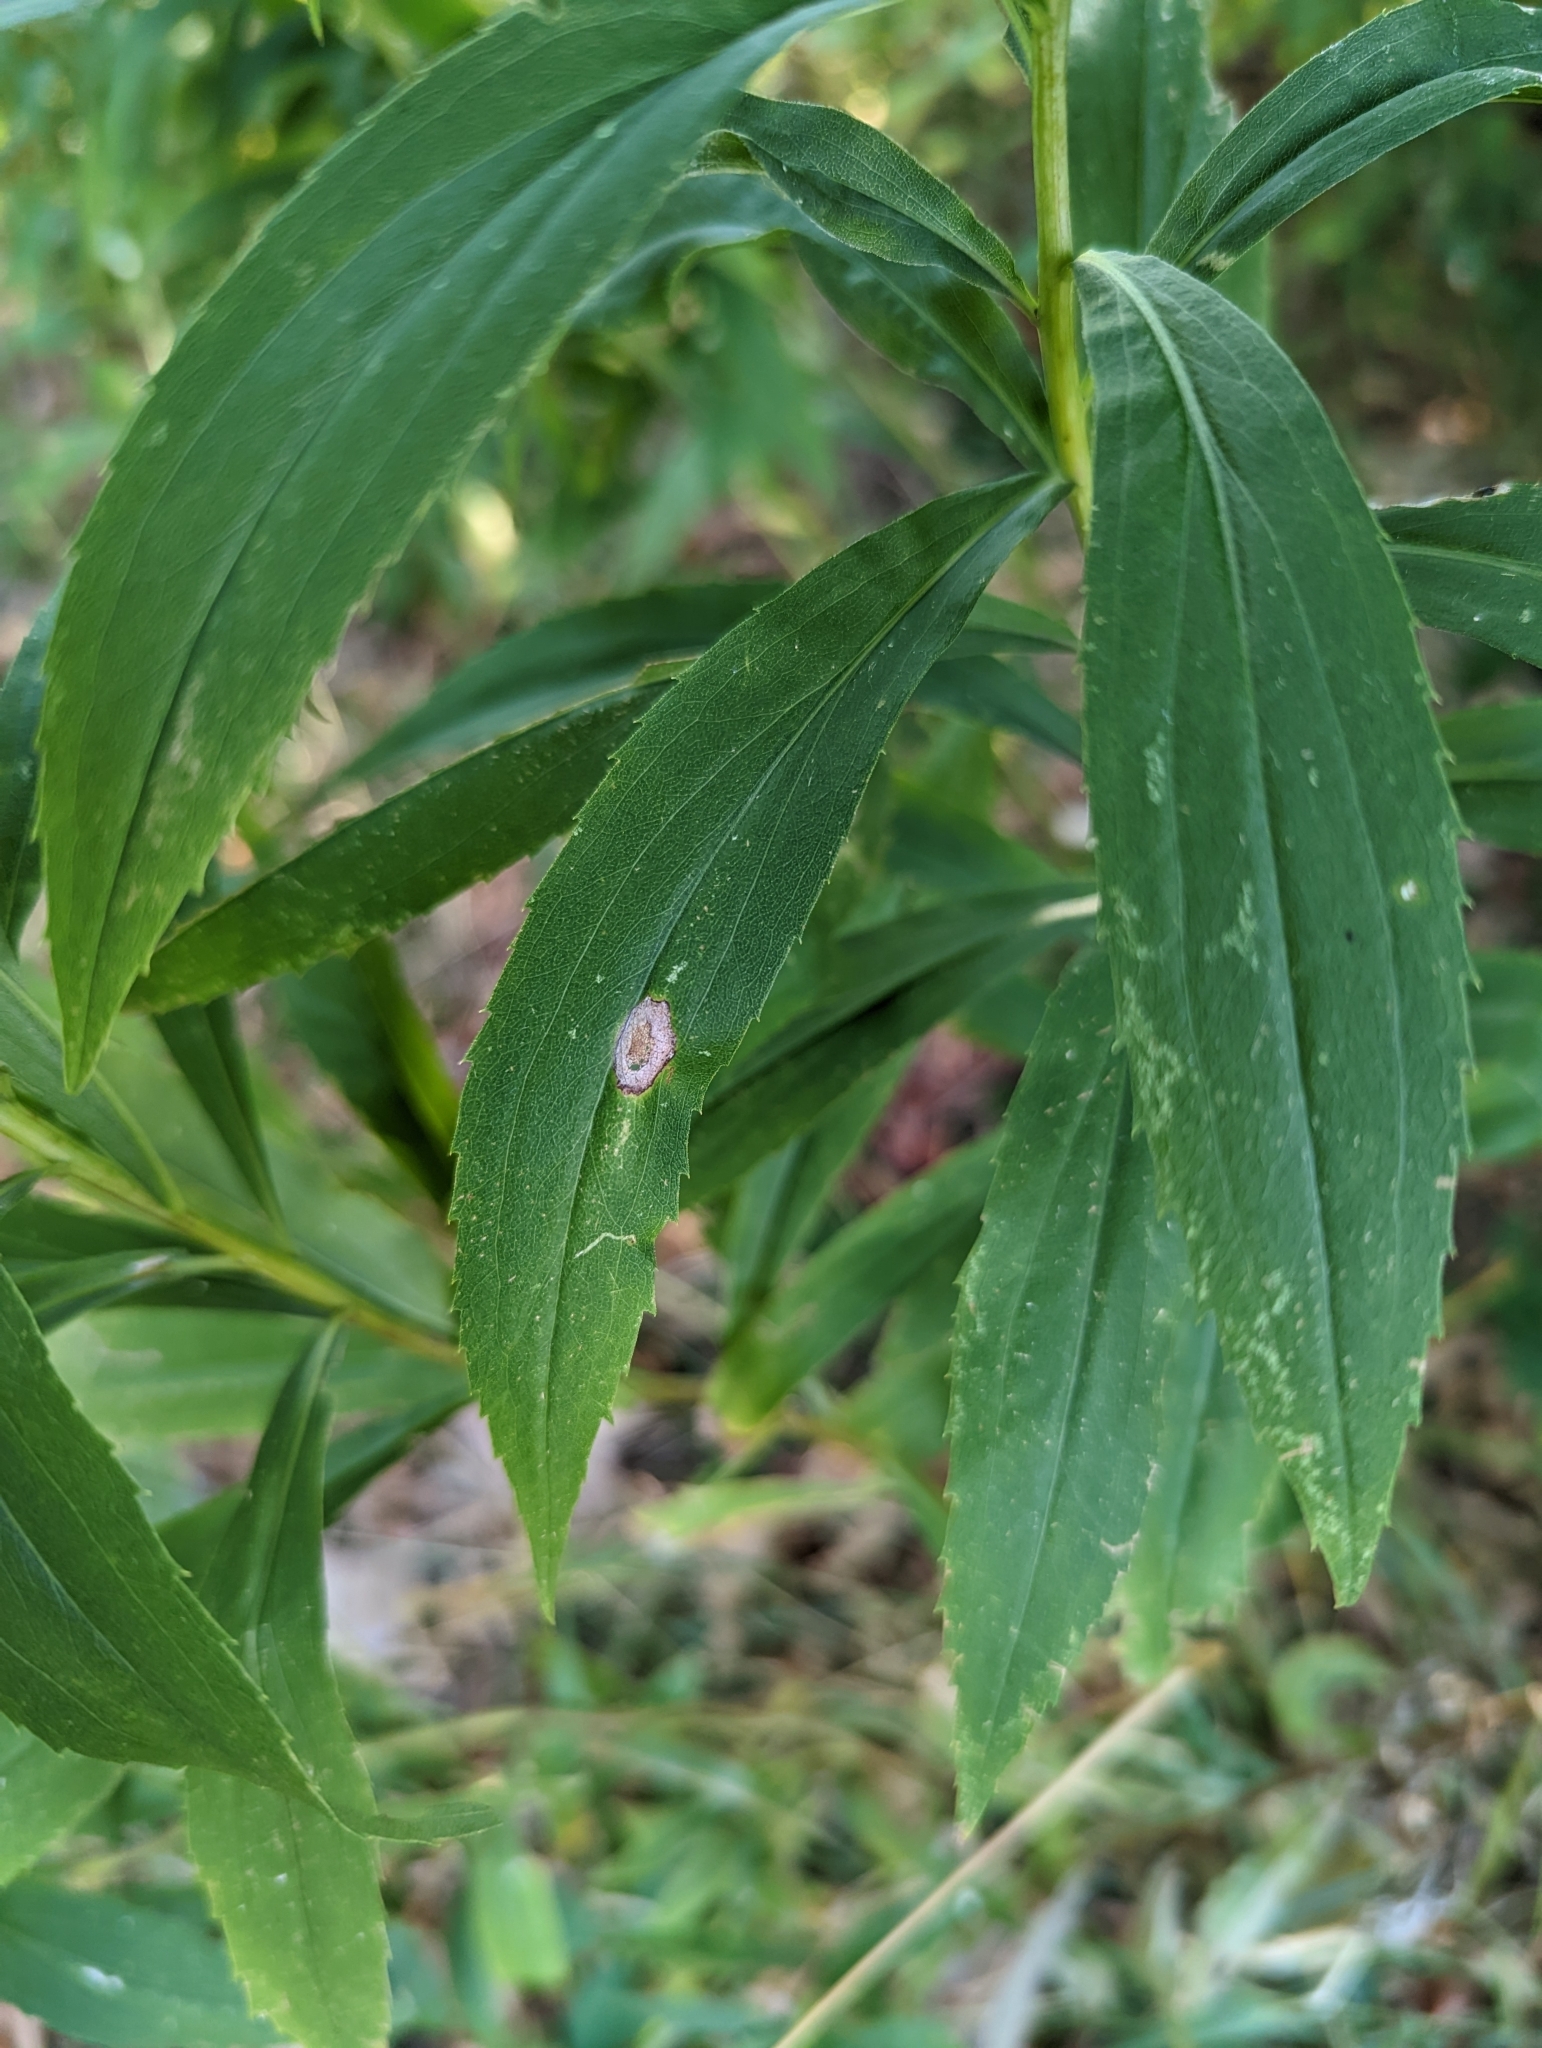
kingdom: Plantae
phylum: Tracheophyta
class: Magnoliopsida
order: Asterales
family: Asteraceae
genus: Solidago
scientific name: Solidago canadensis
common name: Canada goldenrod
